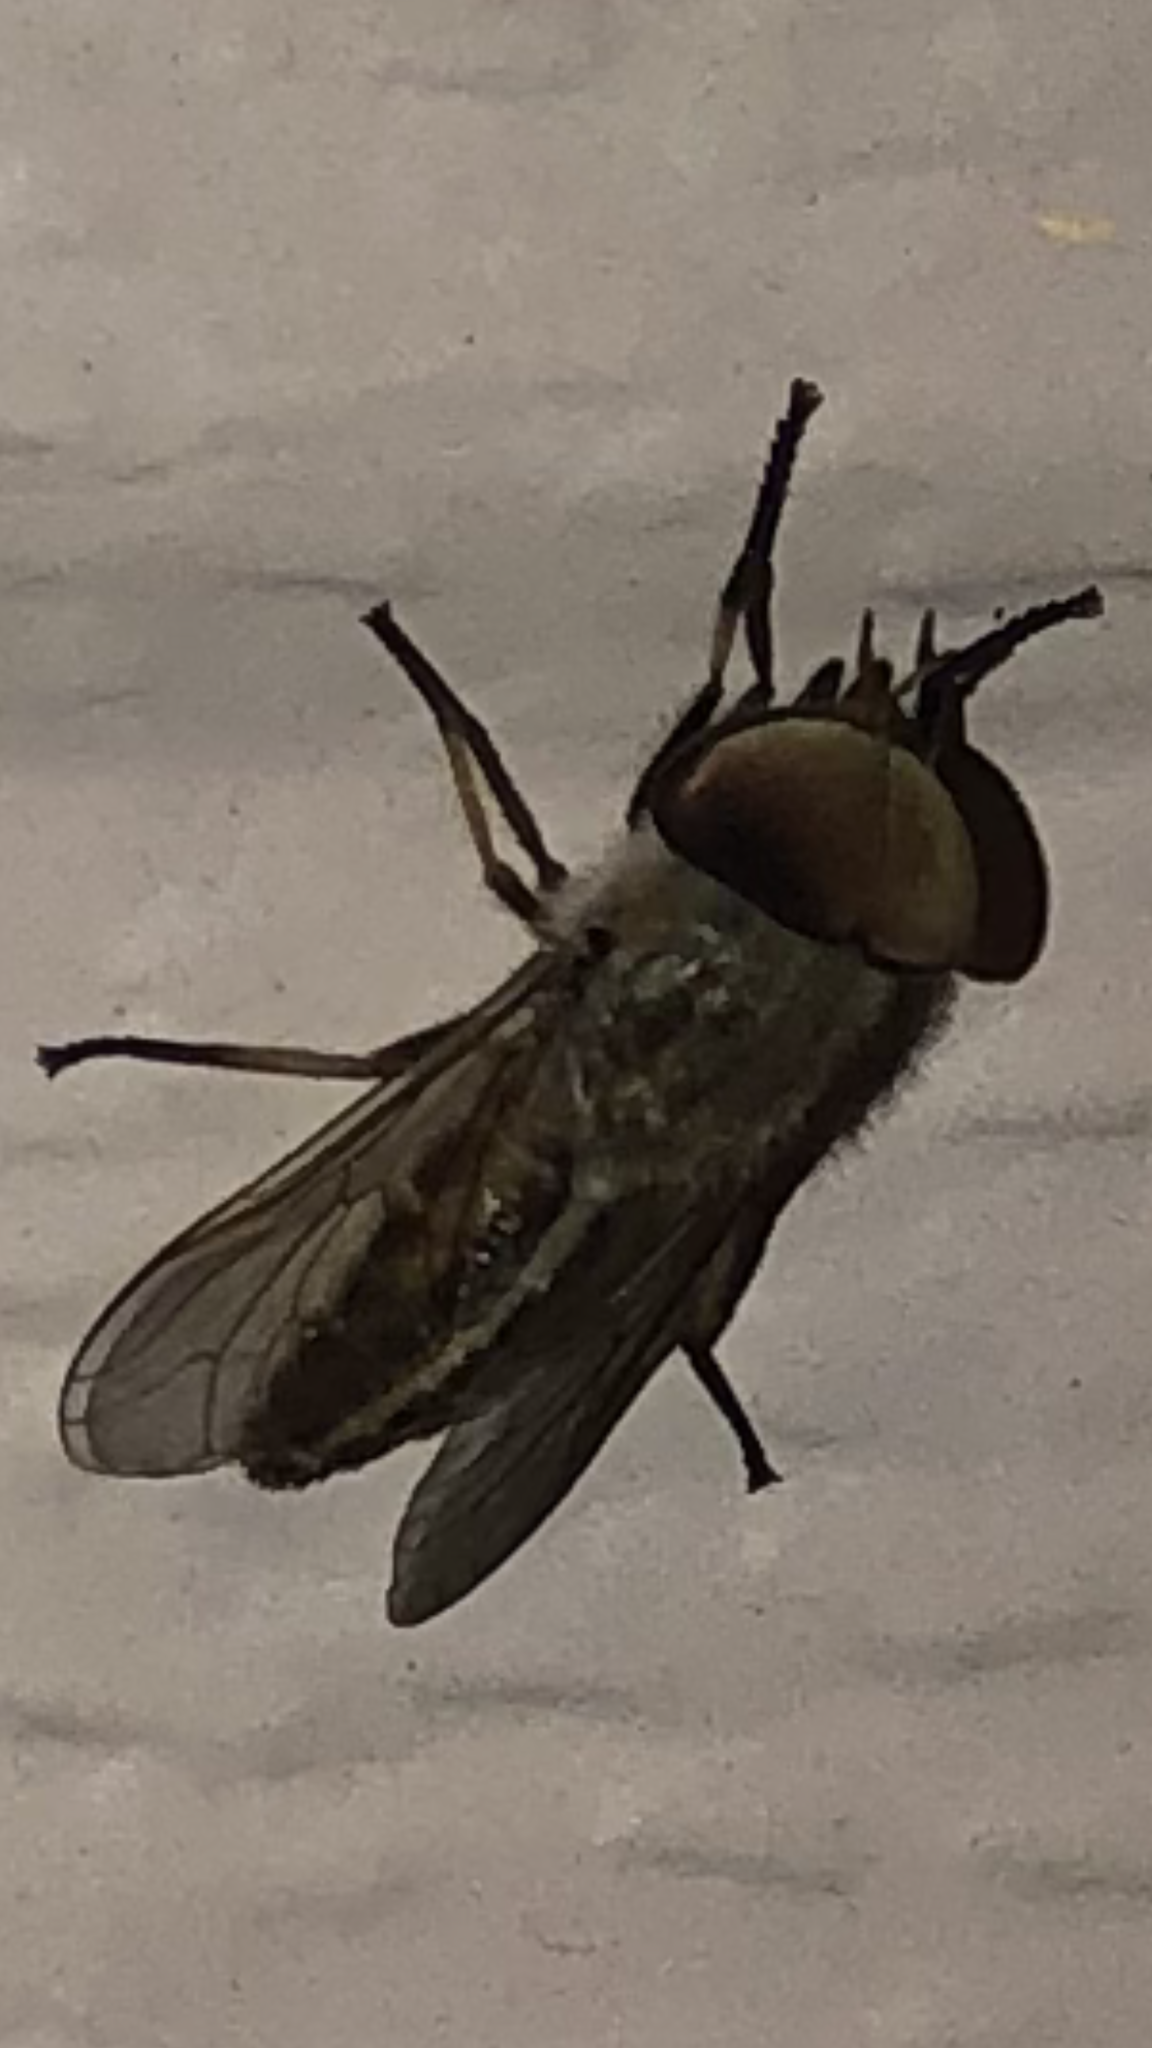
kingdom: Animalia
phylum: Arthropoda
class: Insecta
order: Diptera
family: Tabanidae
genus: Tabanus
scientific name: Tabanus lineola
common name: Striped horse fly
